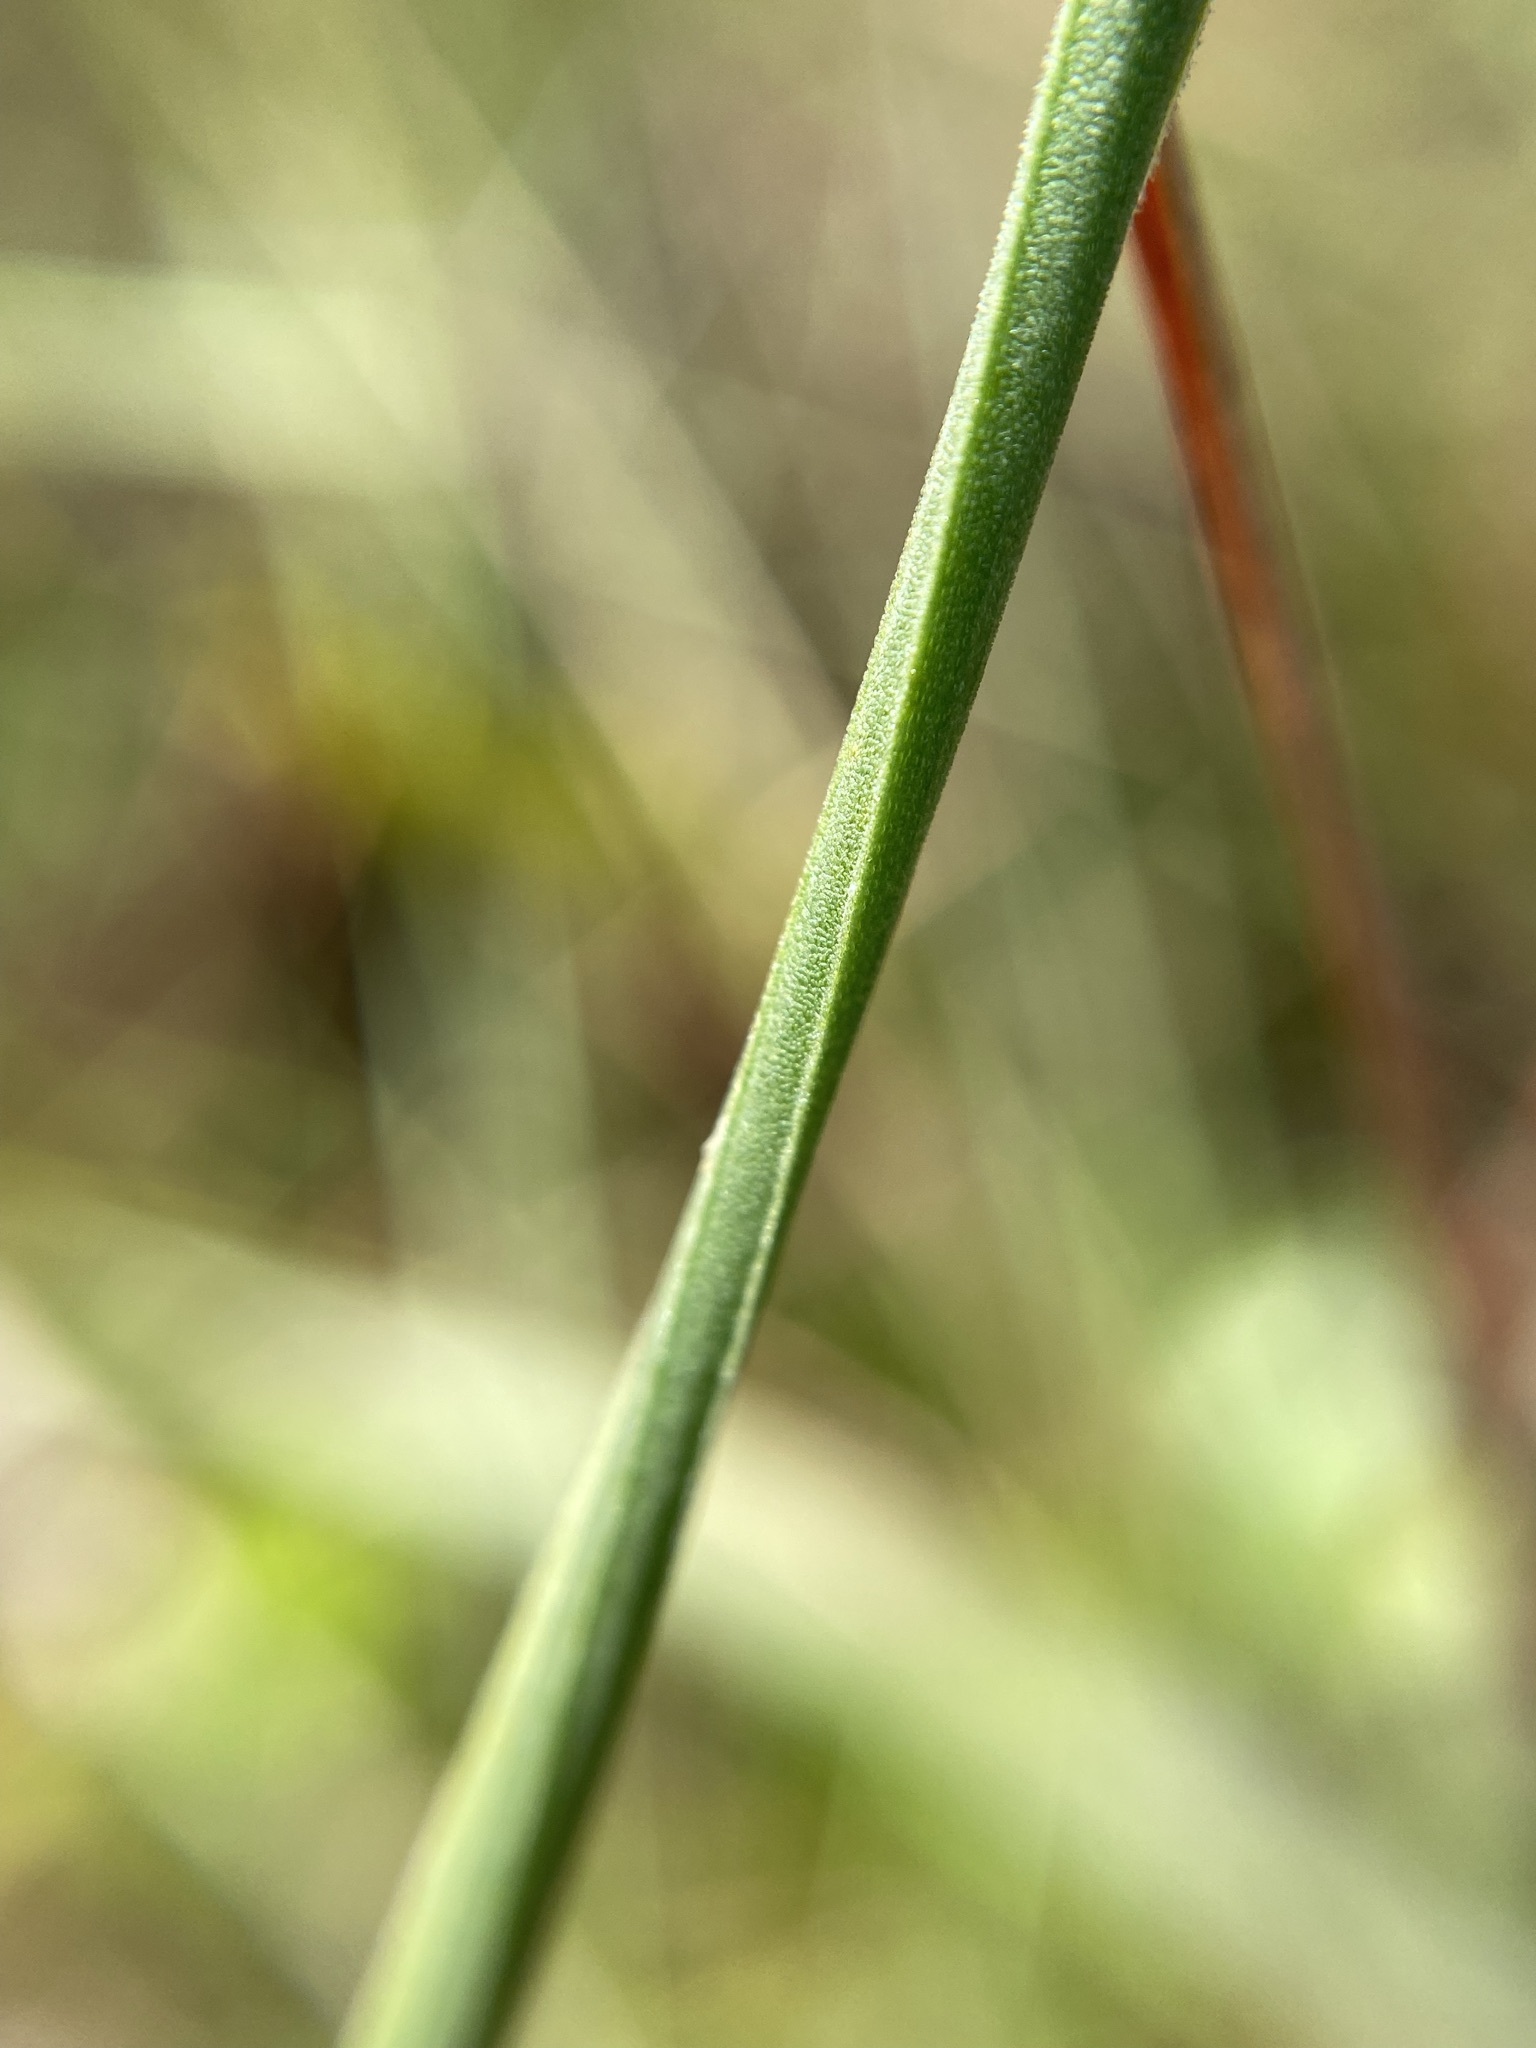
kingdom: Plantae
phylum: Tracheophyta
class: Liliopsida
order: Poales
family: Xyridaceae
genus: Xyris
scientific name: Xyris scabrifolia
